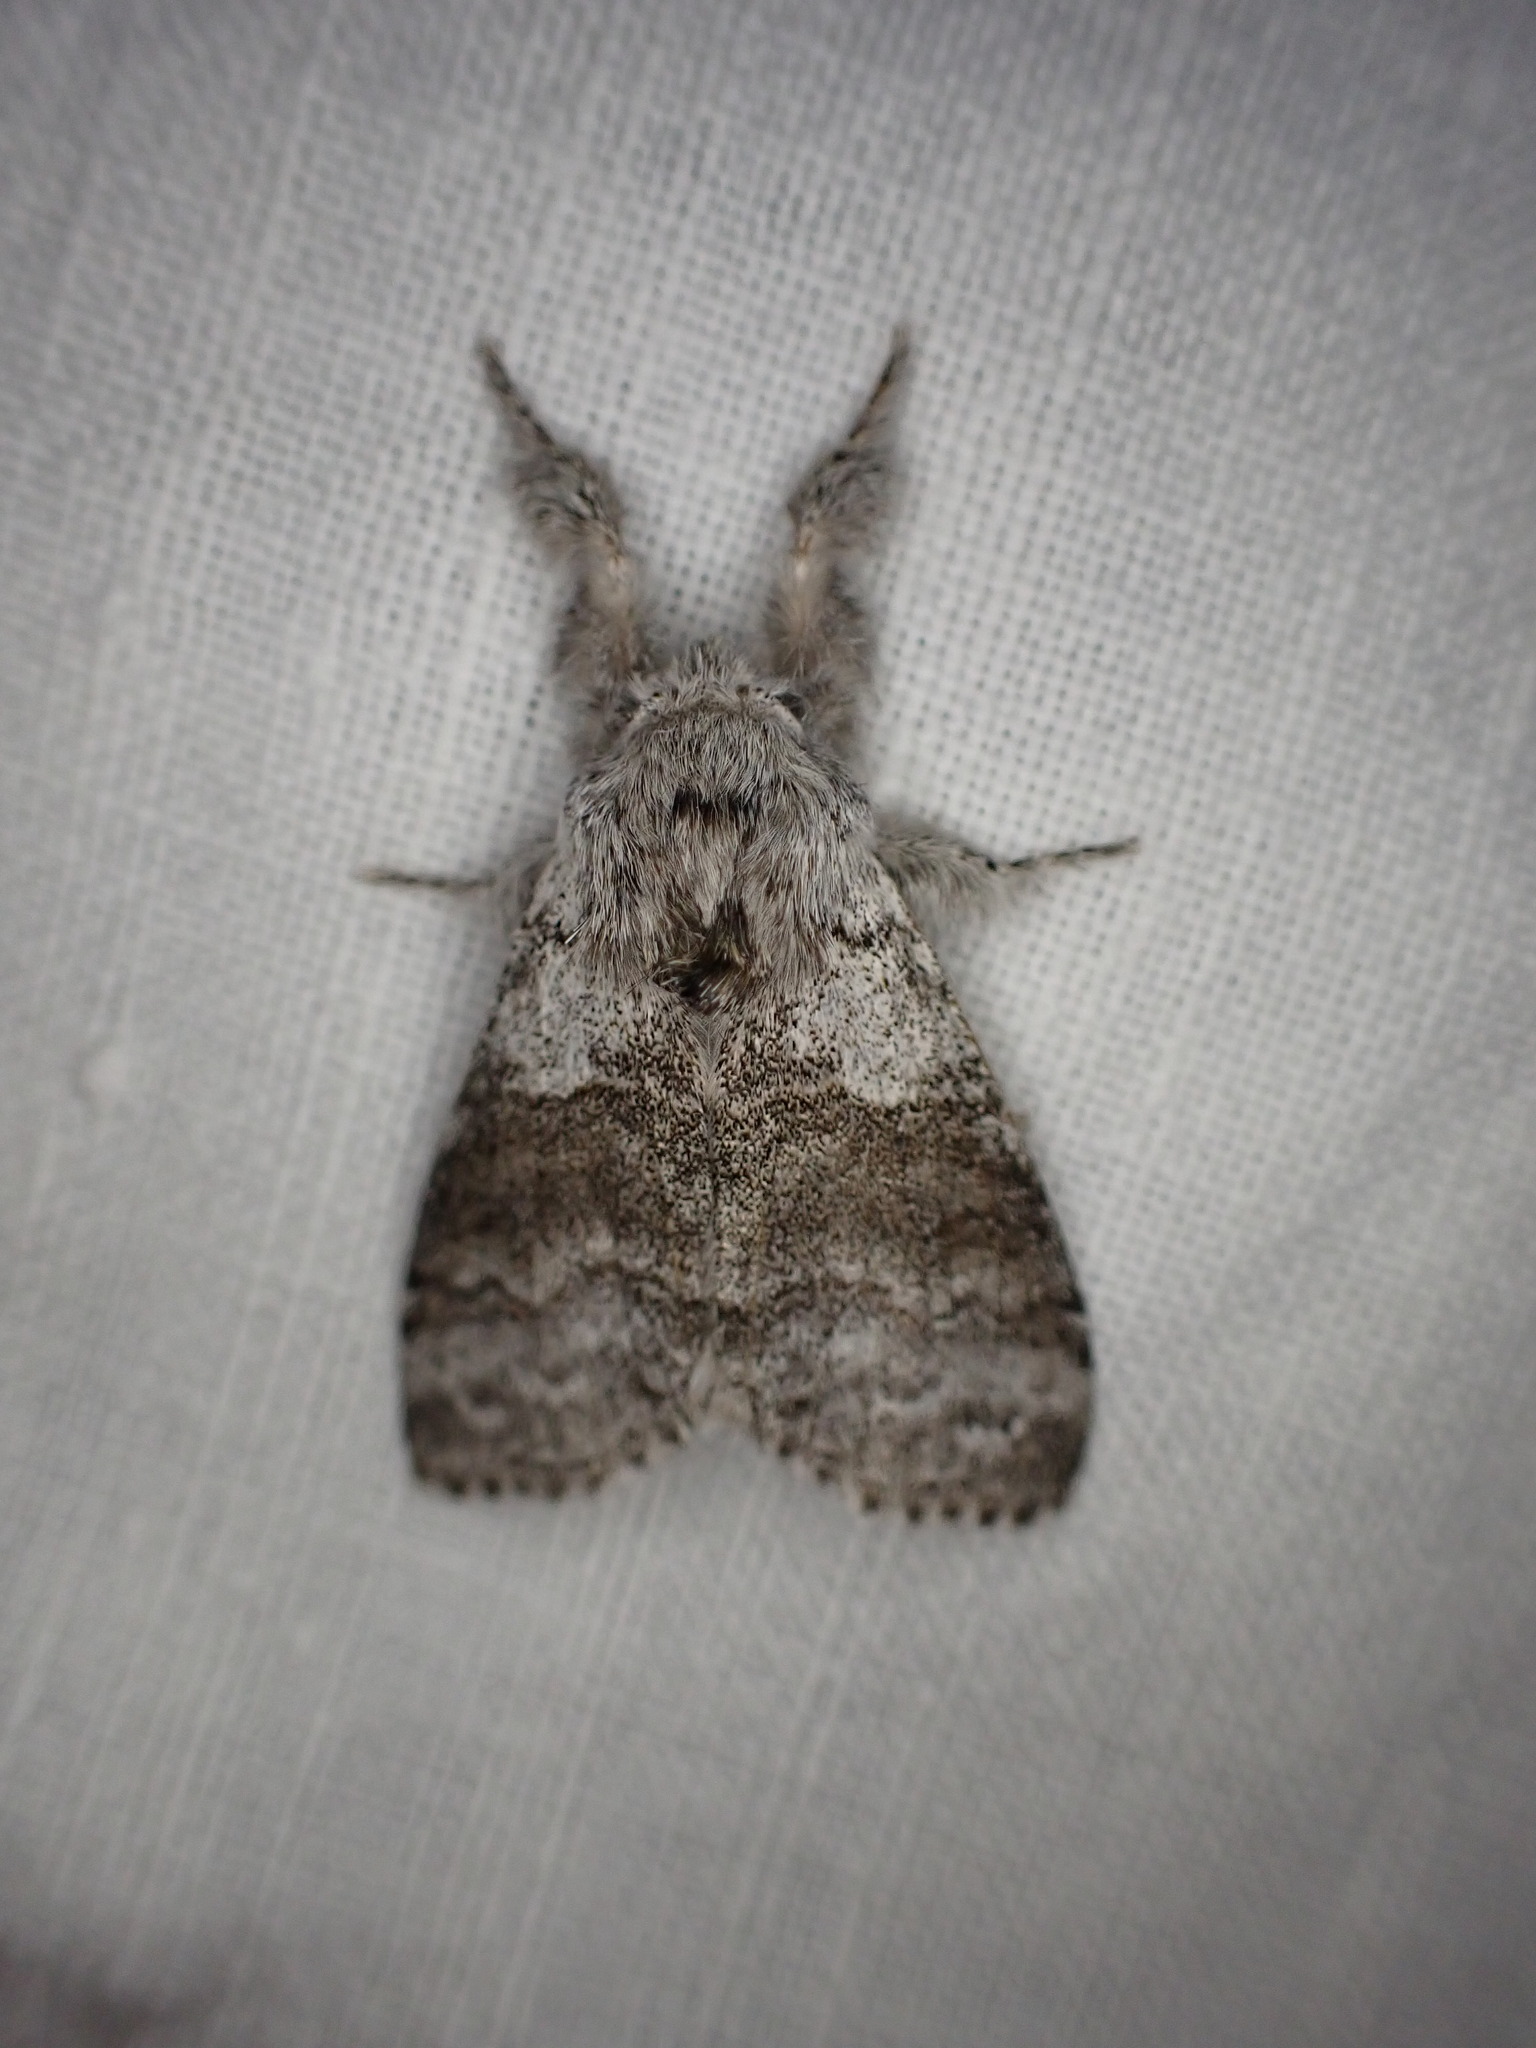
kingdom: Animalia
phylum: Arthropoda
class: Insecta
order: Lepidoptera
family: Erebidae
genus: Calliteara
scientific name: Calliteara pudibunda
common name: Pale tussock
